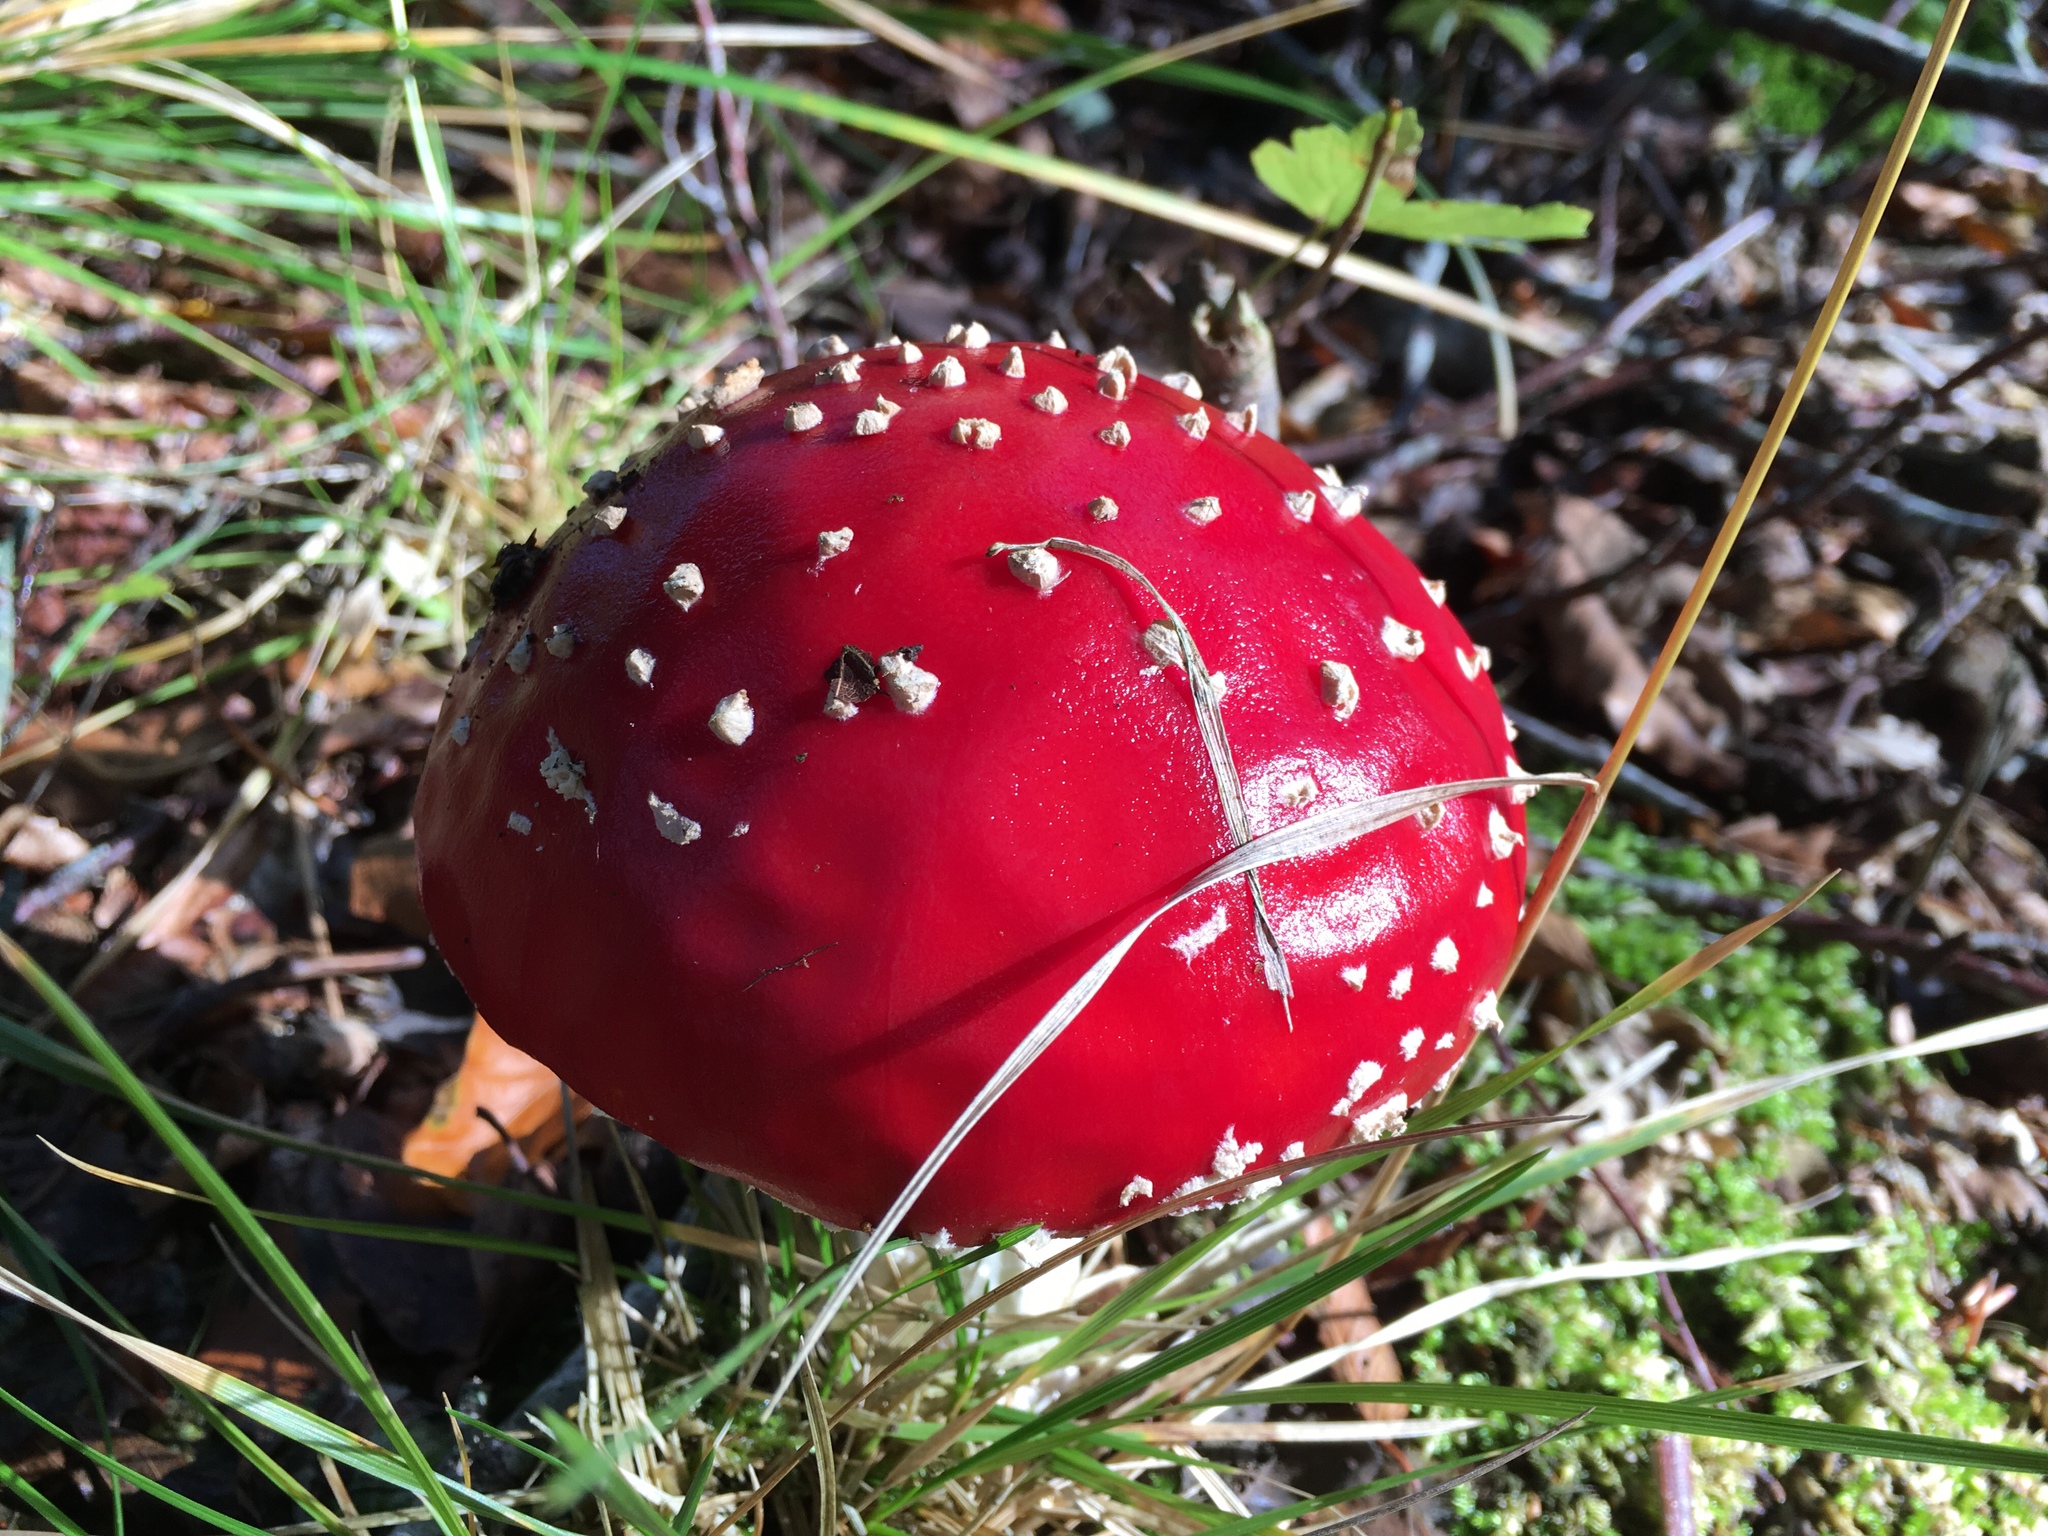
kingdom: Fungi
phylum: Basidiomycota
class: Agaricomycetes
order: Agaricales
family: Amanitaceae
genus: Amanita
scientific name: Amanita muscaria
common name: Fly agaric
